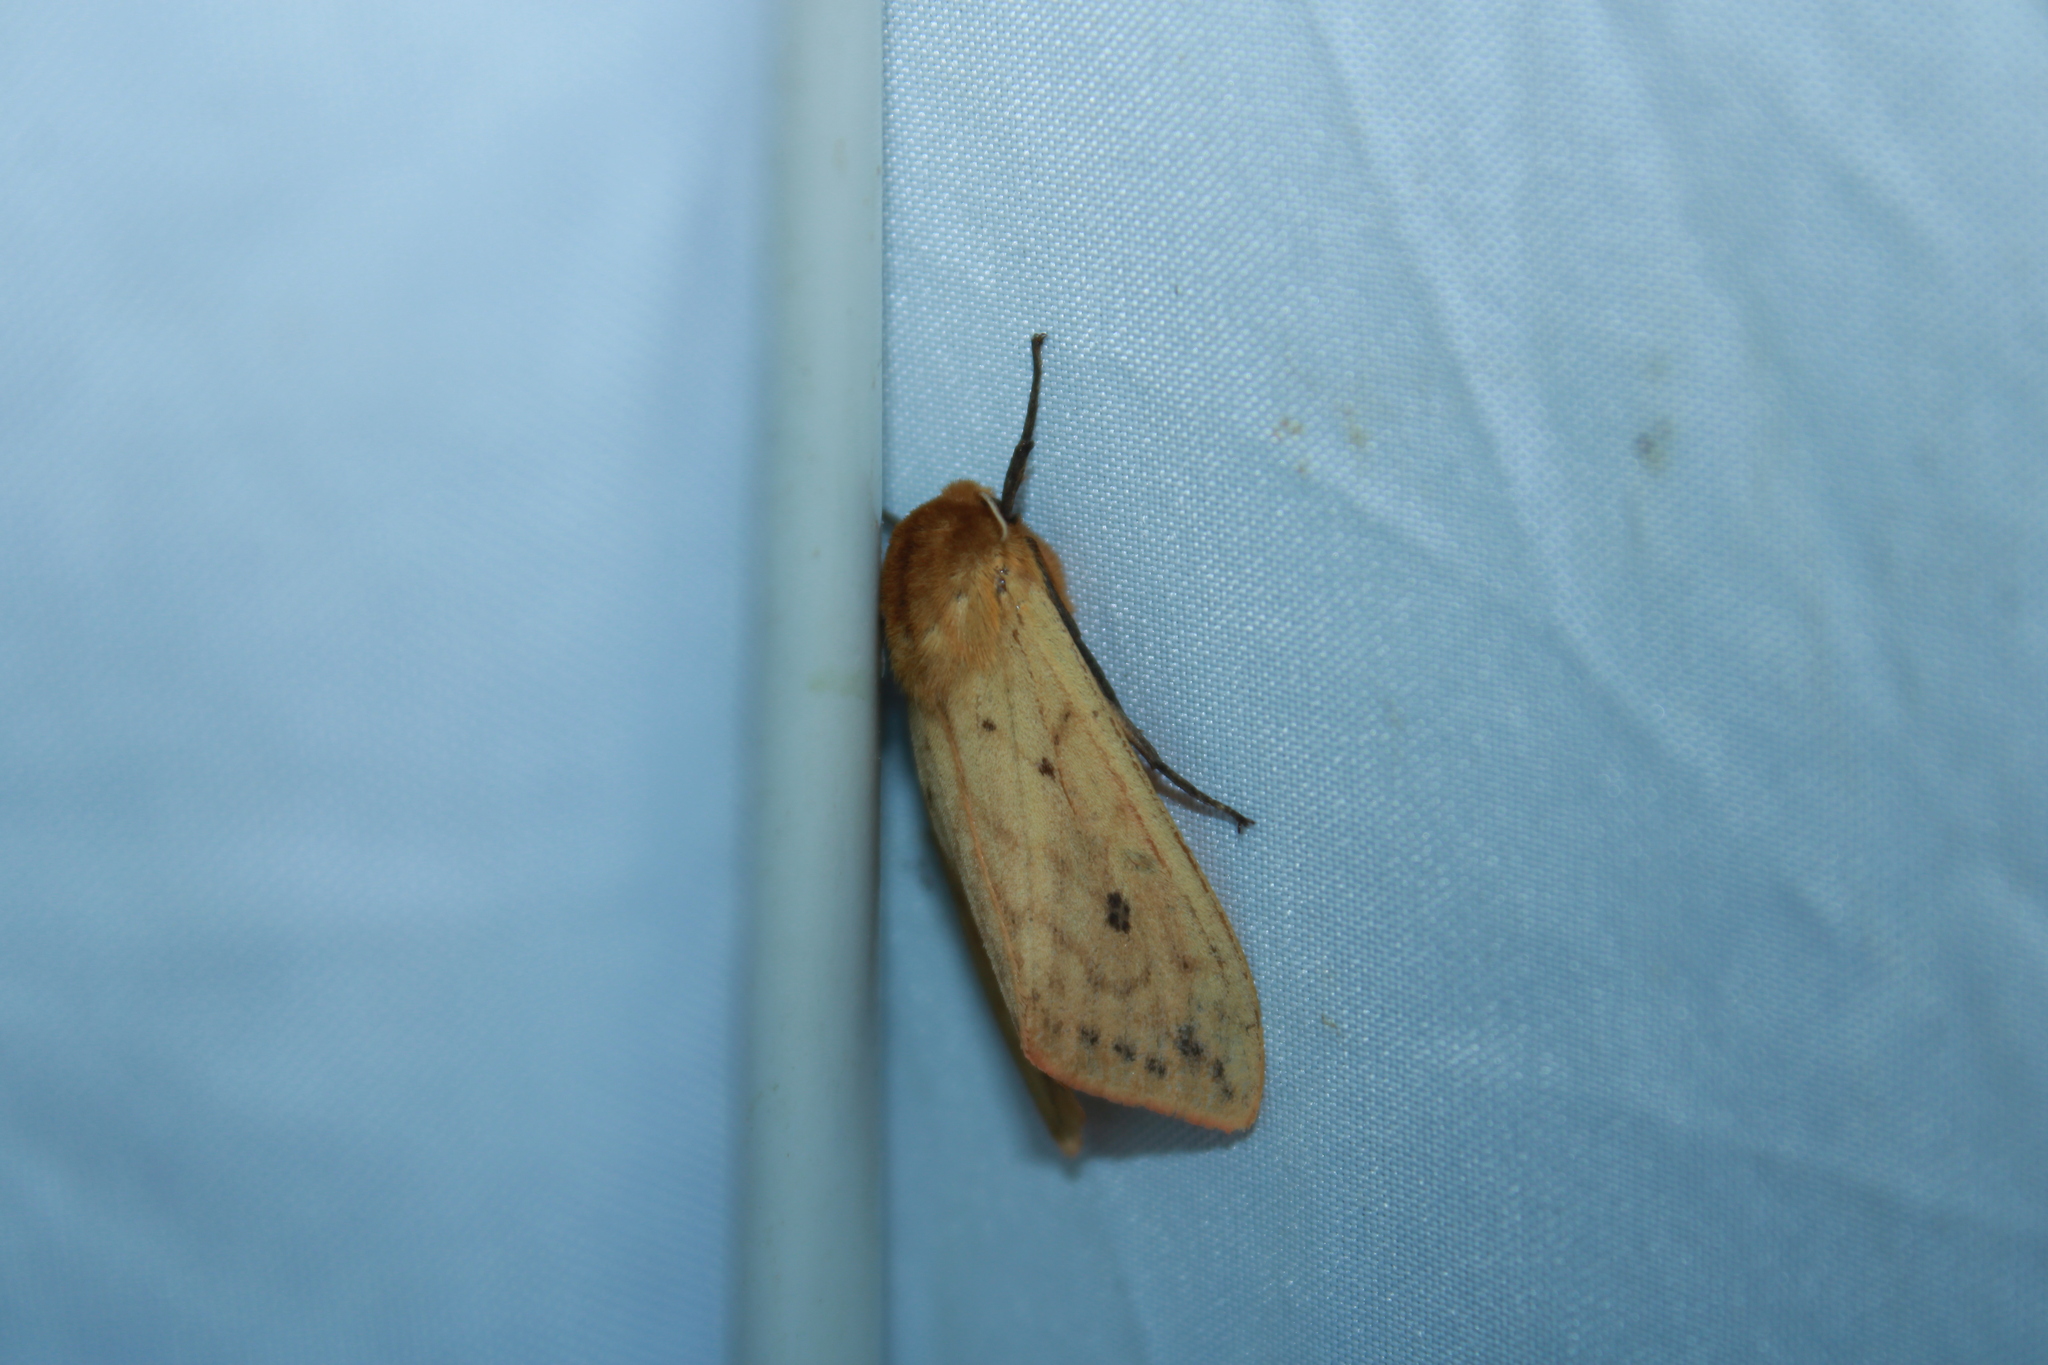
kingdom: Animalia
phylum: Arthropoda
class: Insecta
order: Lepidoptera
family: Erebidae
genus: Pyrrharctia
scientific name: Pyrrharctia isabella
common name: Isabella tiger moth
